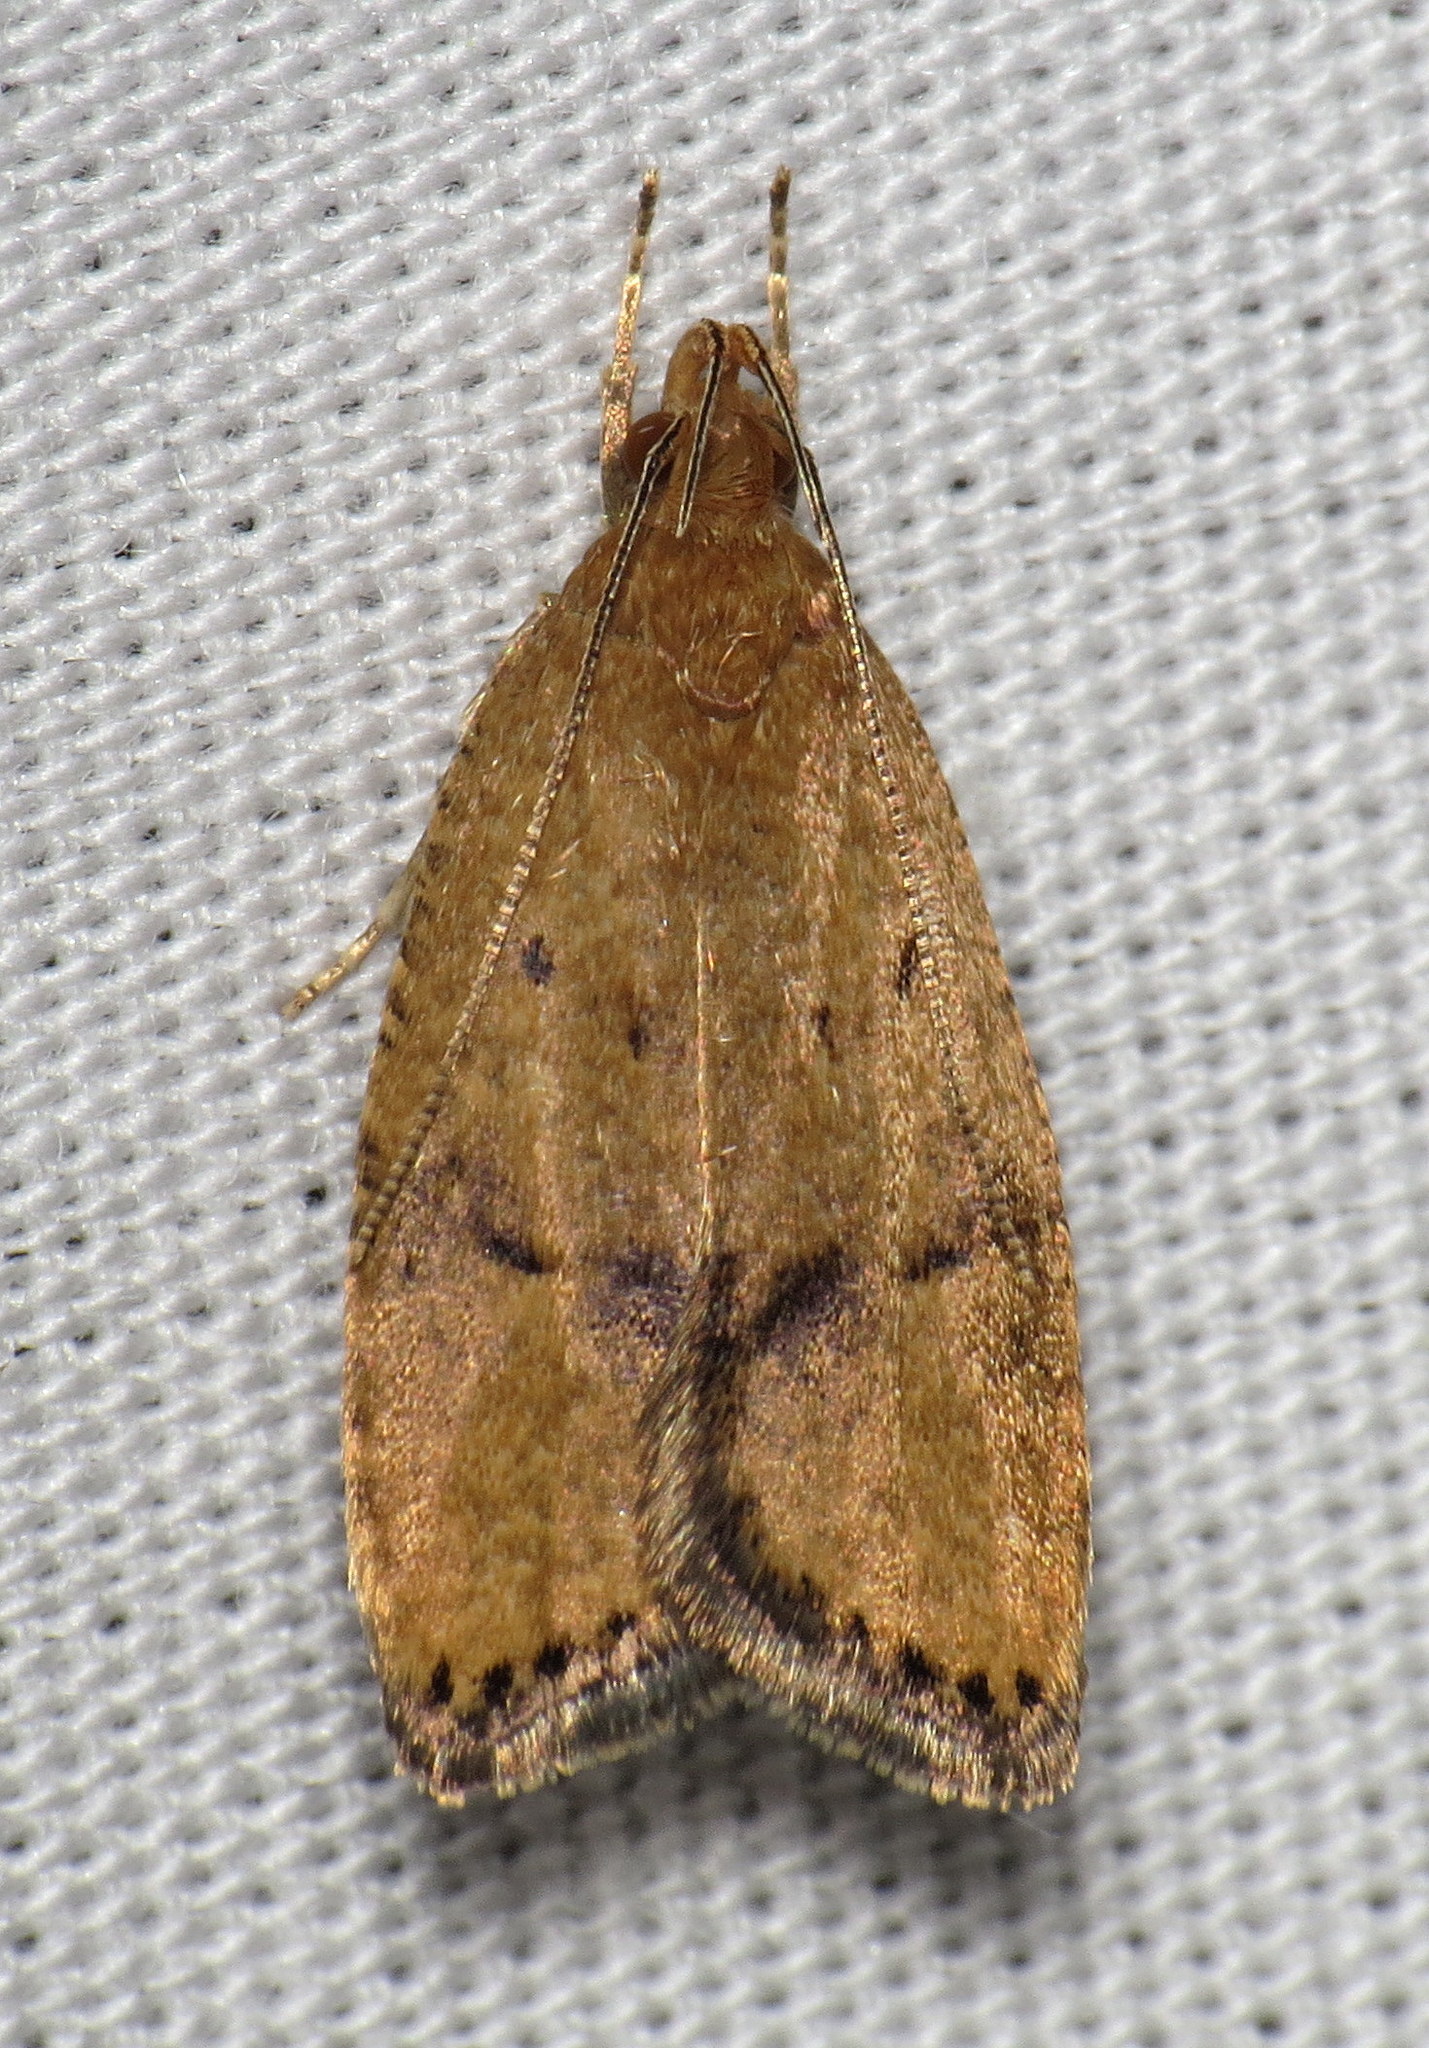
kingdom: Animalia
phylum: Arthropoda
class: Insecta
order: Lepidoptera
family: Depressariidae
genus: Psilocorsis
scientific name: Psilocorsis quercicella
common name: Oak leaftier moth
